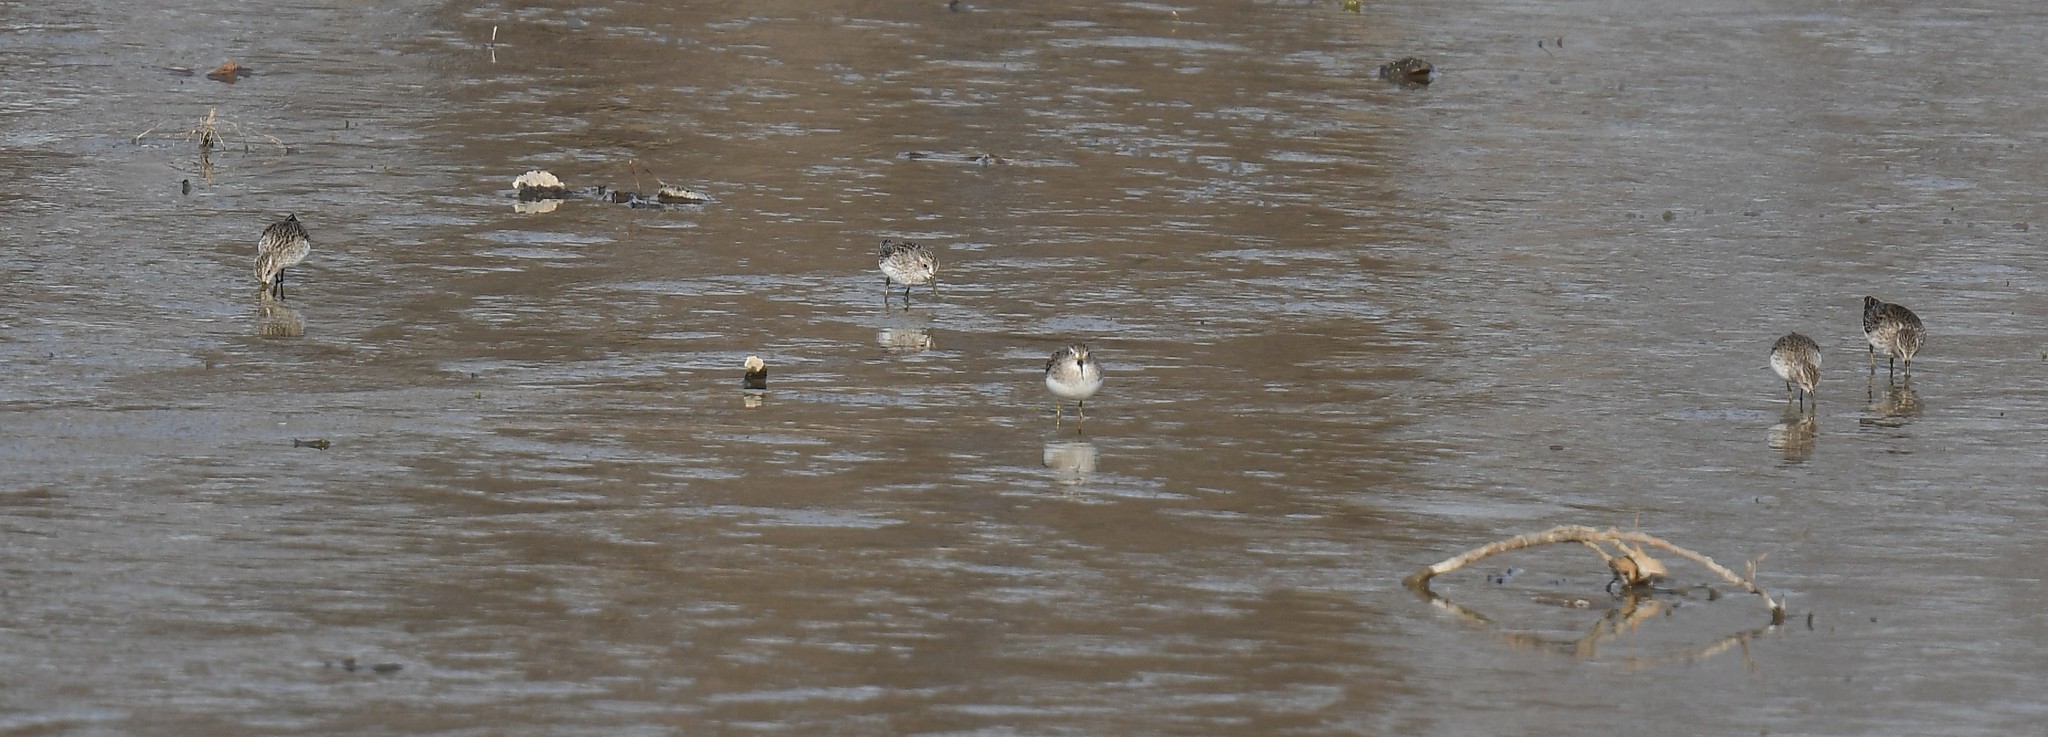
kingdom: Animalia
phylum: Chordata
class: Aves
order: Charadriiformes
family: Scolopacidae
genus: Calidris
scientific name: Calidris minutilla
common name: Least sandpiper
